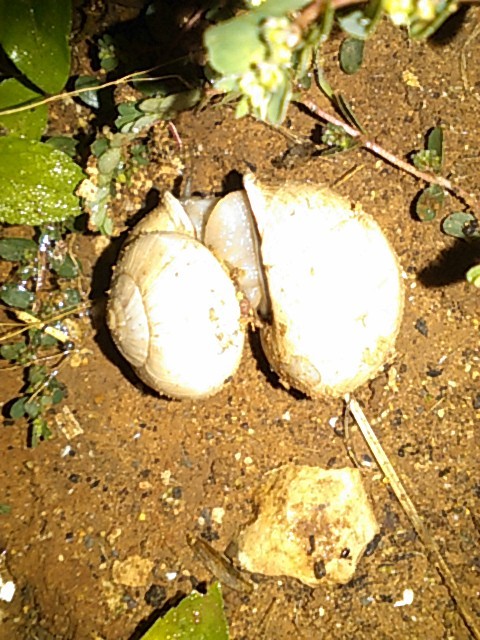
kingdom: Animalia
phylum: Mollusca
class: Gastropoda
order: Stylommatophora
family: Helicidae
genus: Otala
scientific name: Otala lactea
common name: Milk snail
